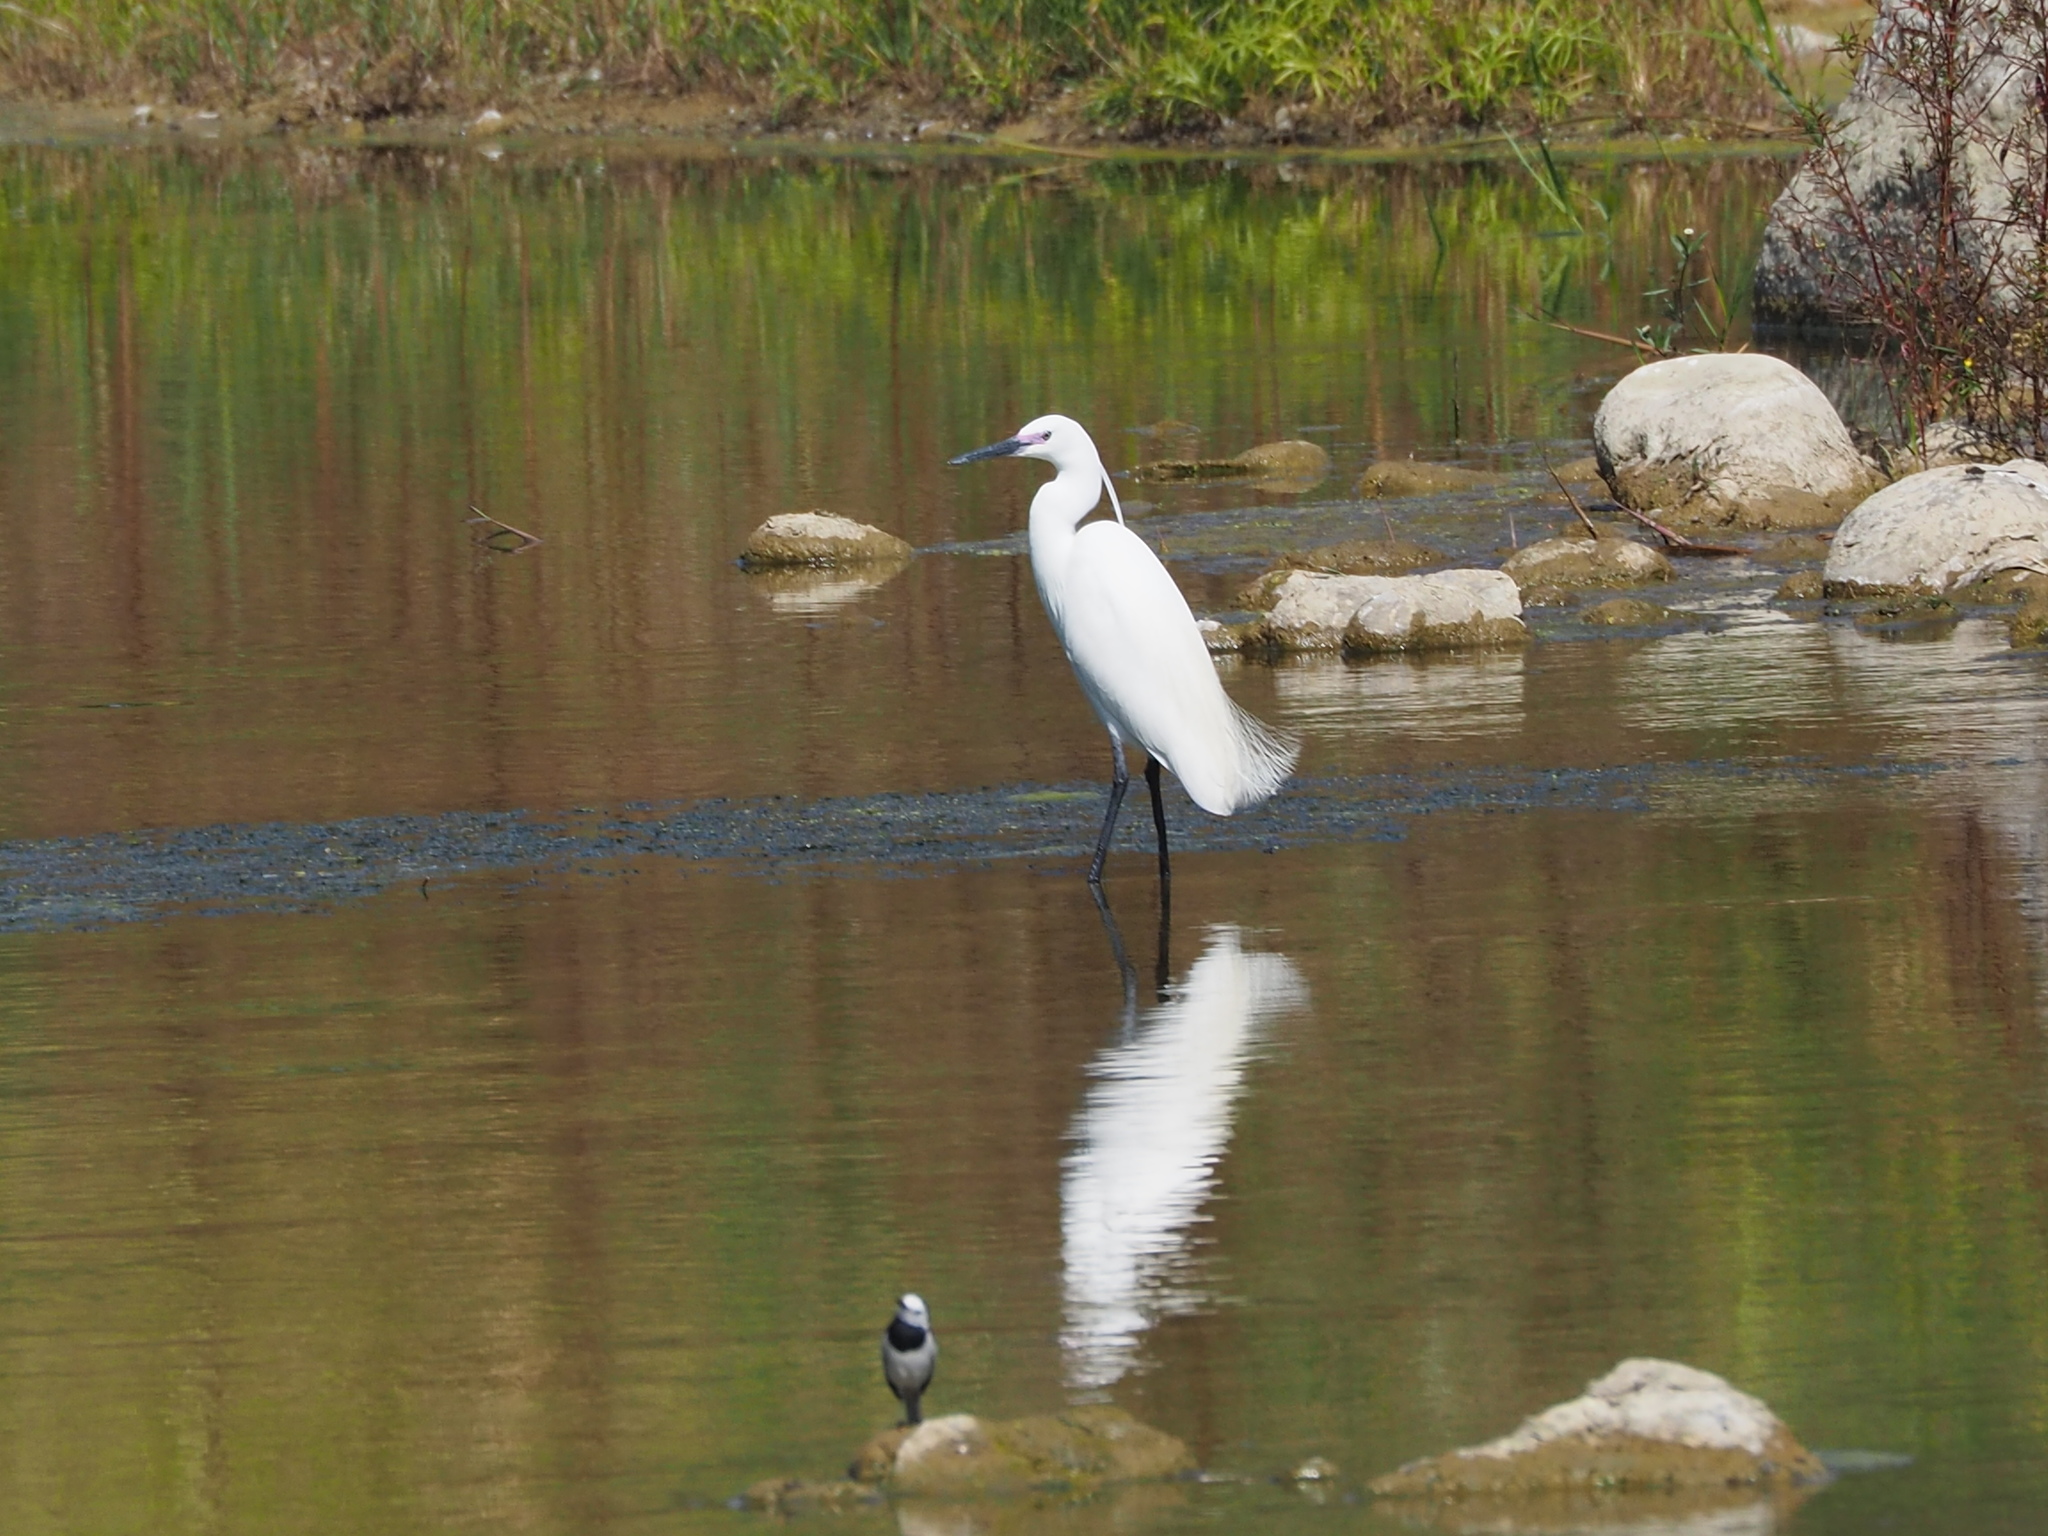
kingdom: Animalia
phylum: Chordata
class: Aves
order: Pelecaniformes
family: Ardeidae
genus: Egretta
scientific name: Egretta garzetta
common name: Little egret
